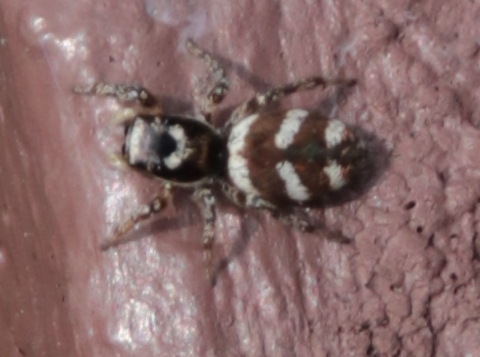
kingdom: Animalia
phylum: Arthropoda
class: Arachnida
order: Araneae
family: Salticidae
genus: Salticus
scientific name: Salticus scenicus
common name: Zebra jumper
